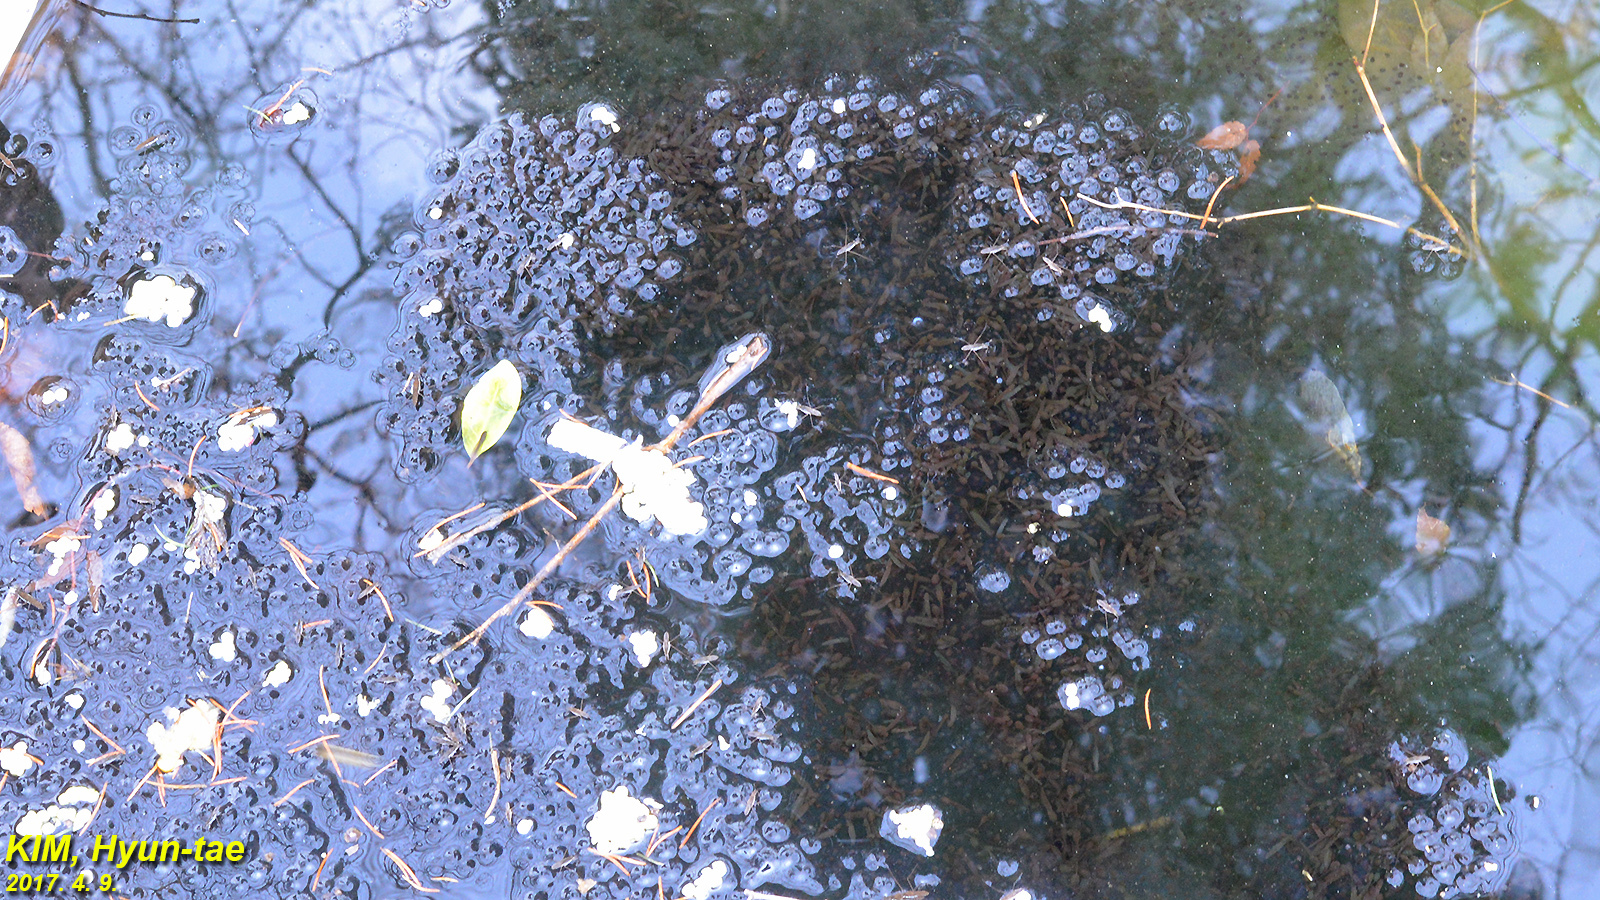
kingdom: Animalia
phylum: Chordata
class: Amphibia
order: Anura
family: Ranidae
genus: Rana
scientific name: Rana uenoi
